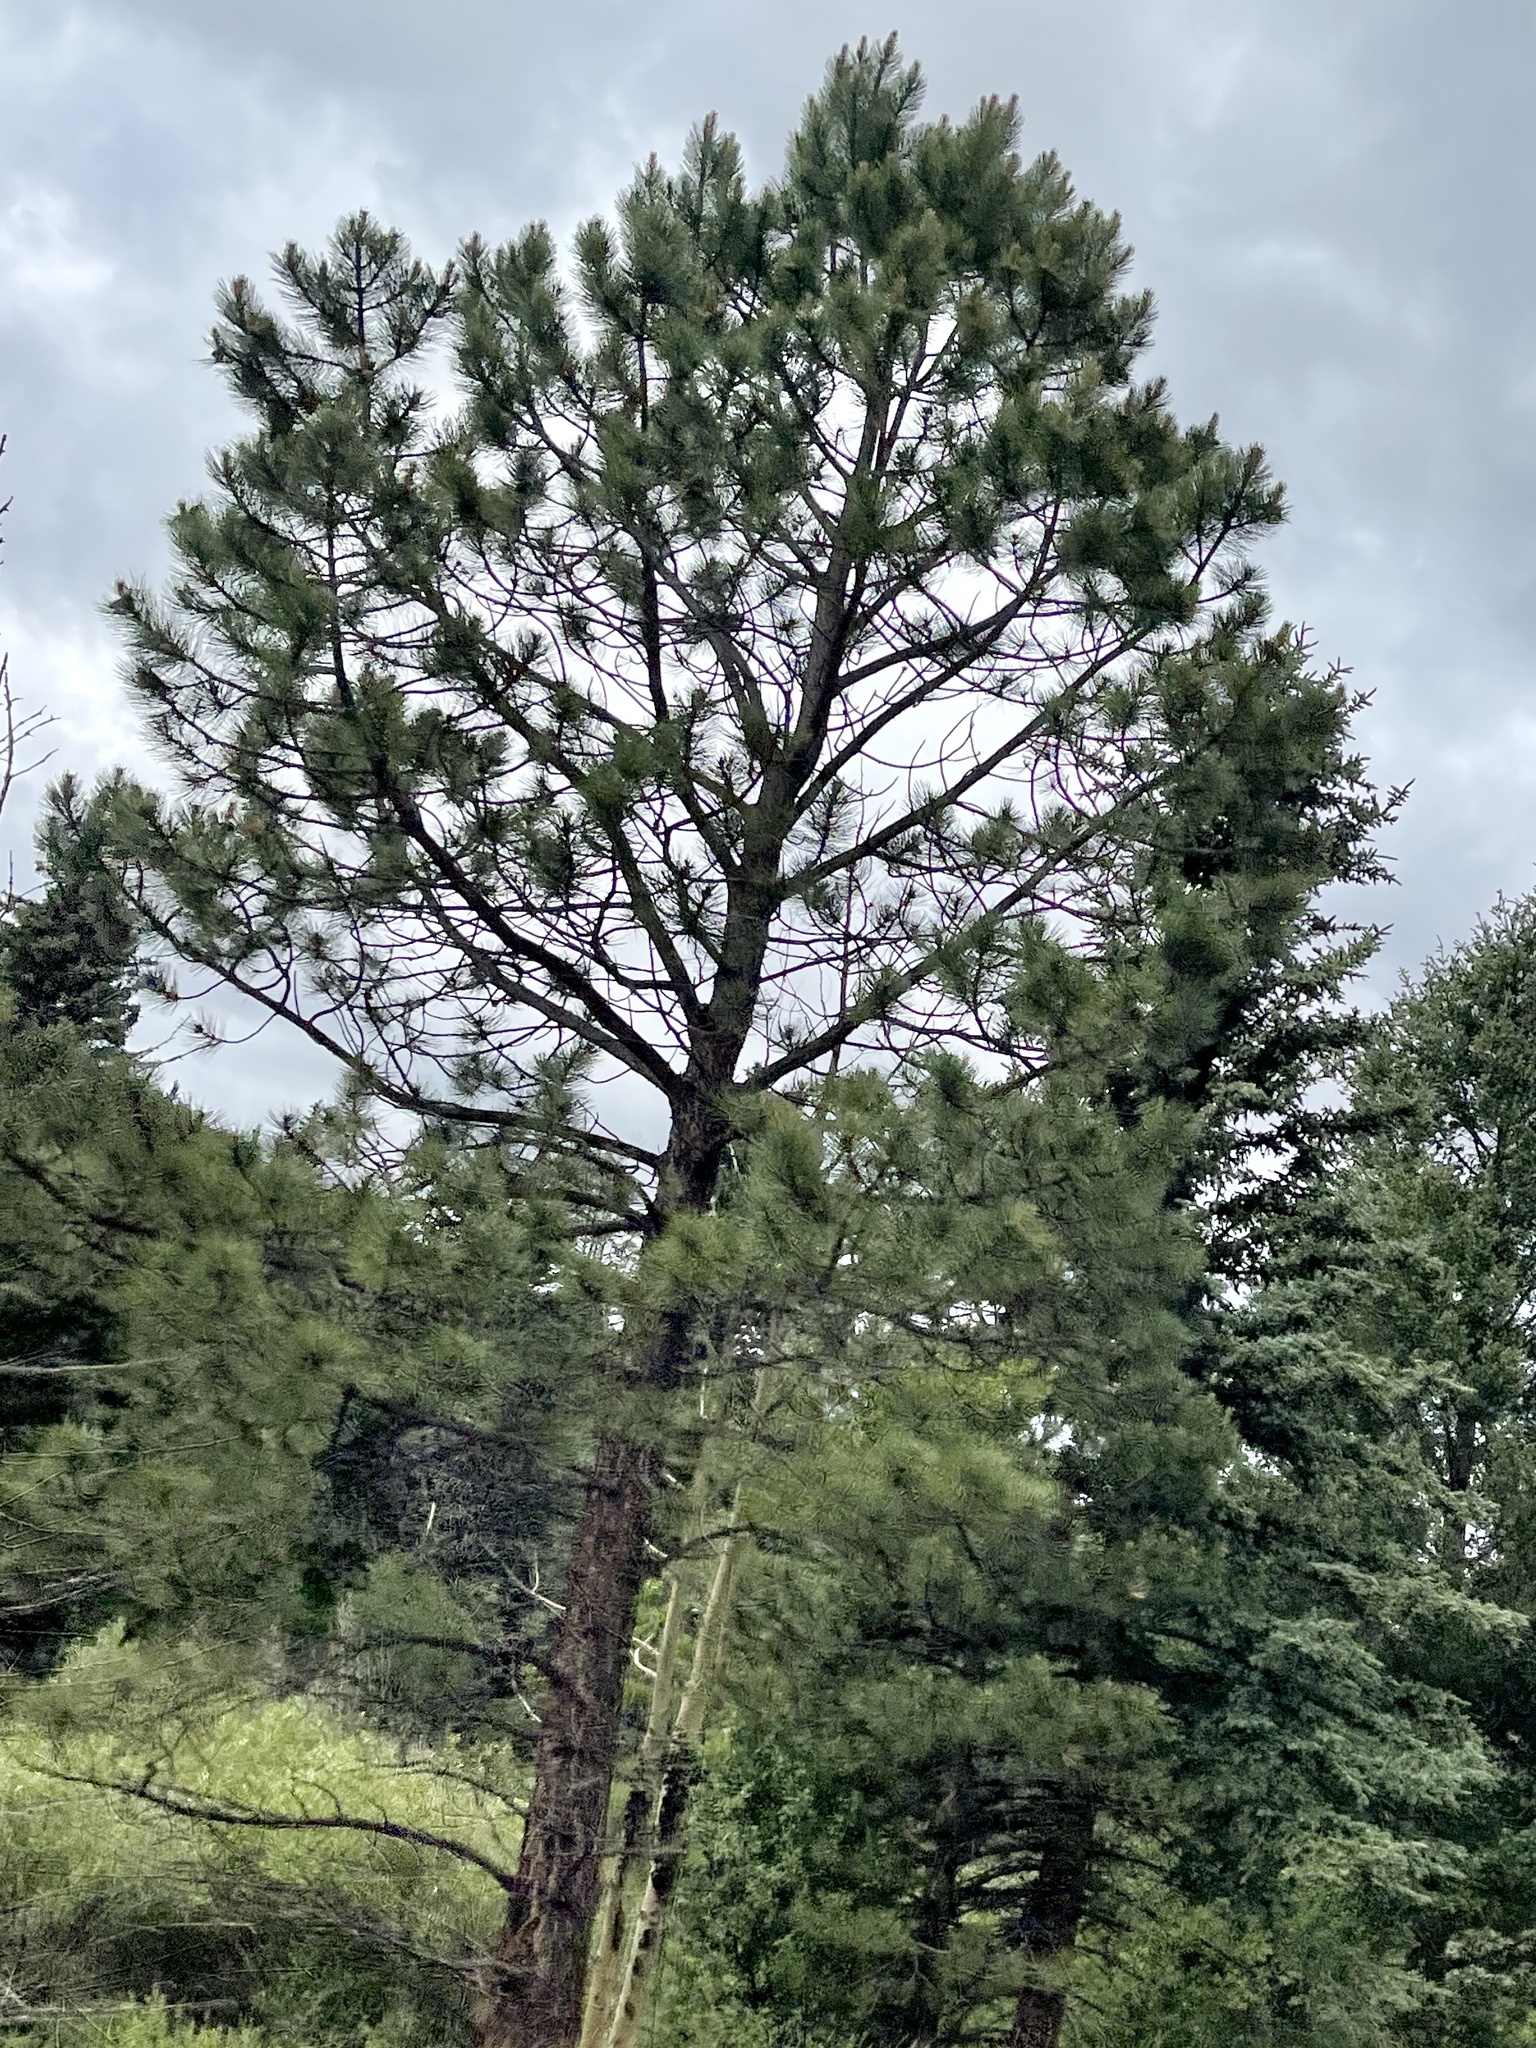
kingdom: Plantae
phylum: Tracheophyta
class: Pinopsida
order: Pinales
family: Pinaceae
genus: Pinus
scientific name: Pinus ponderosa
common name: Western yellow-pine
